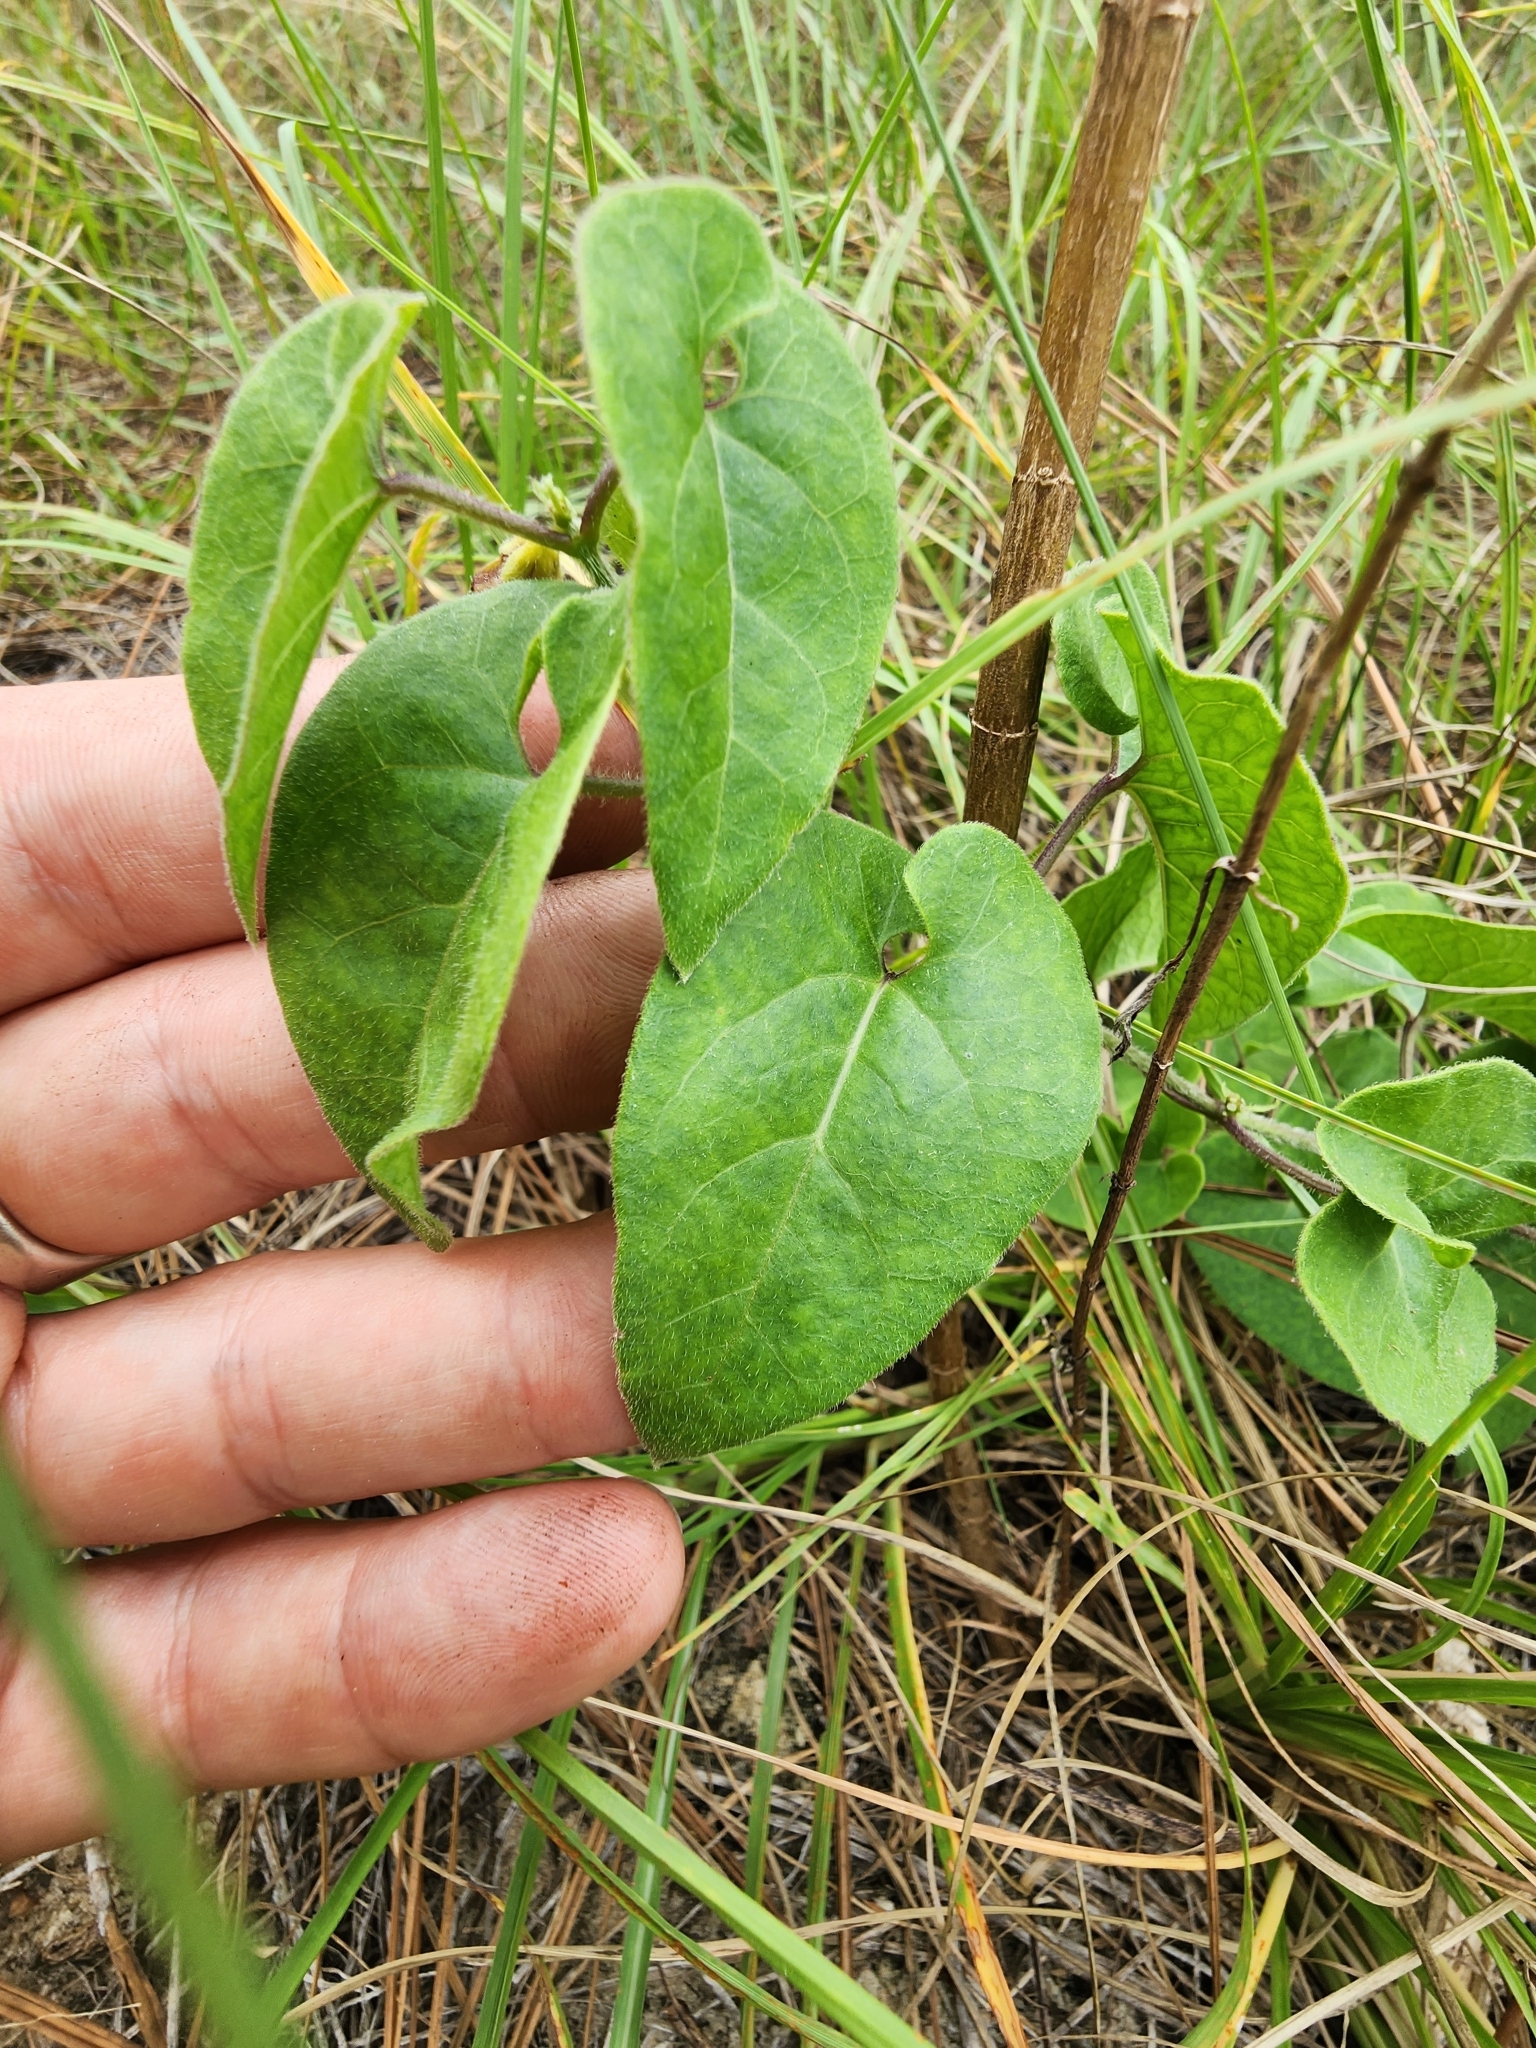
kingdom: Plantae
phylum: Tracheophyta
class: Magnoliopsida
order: Gentianales
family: Apocynaceae
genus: Chthamalia
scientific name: Chthamalia pubiflora
